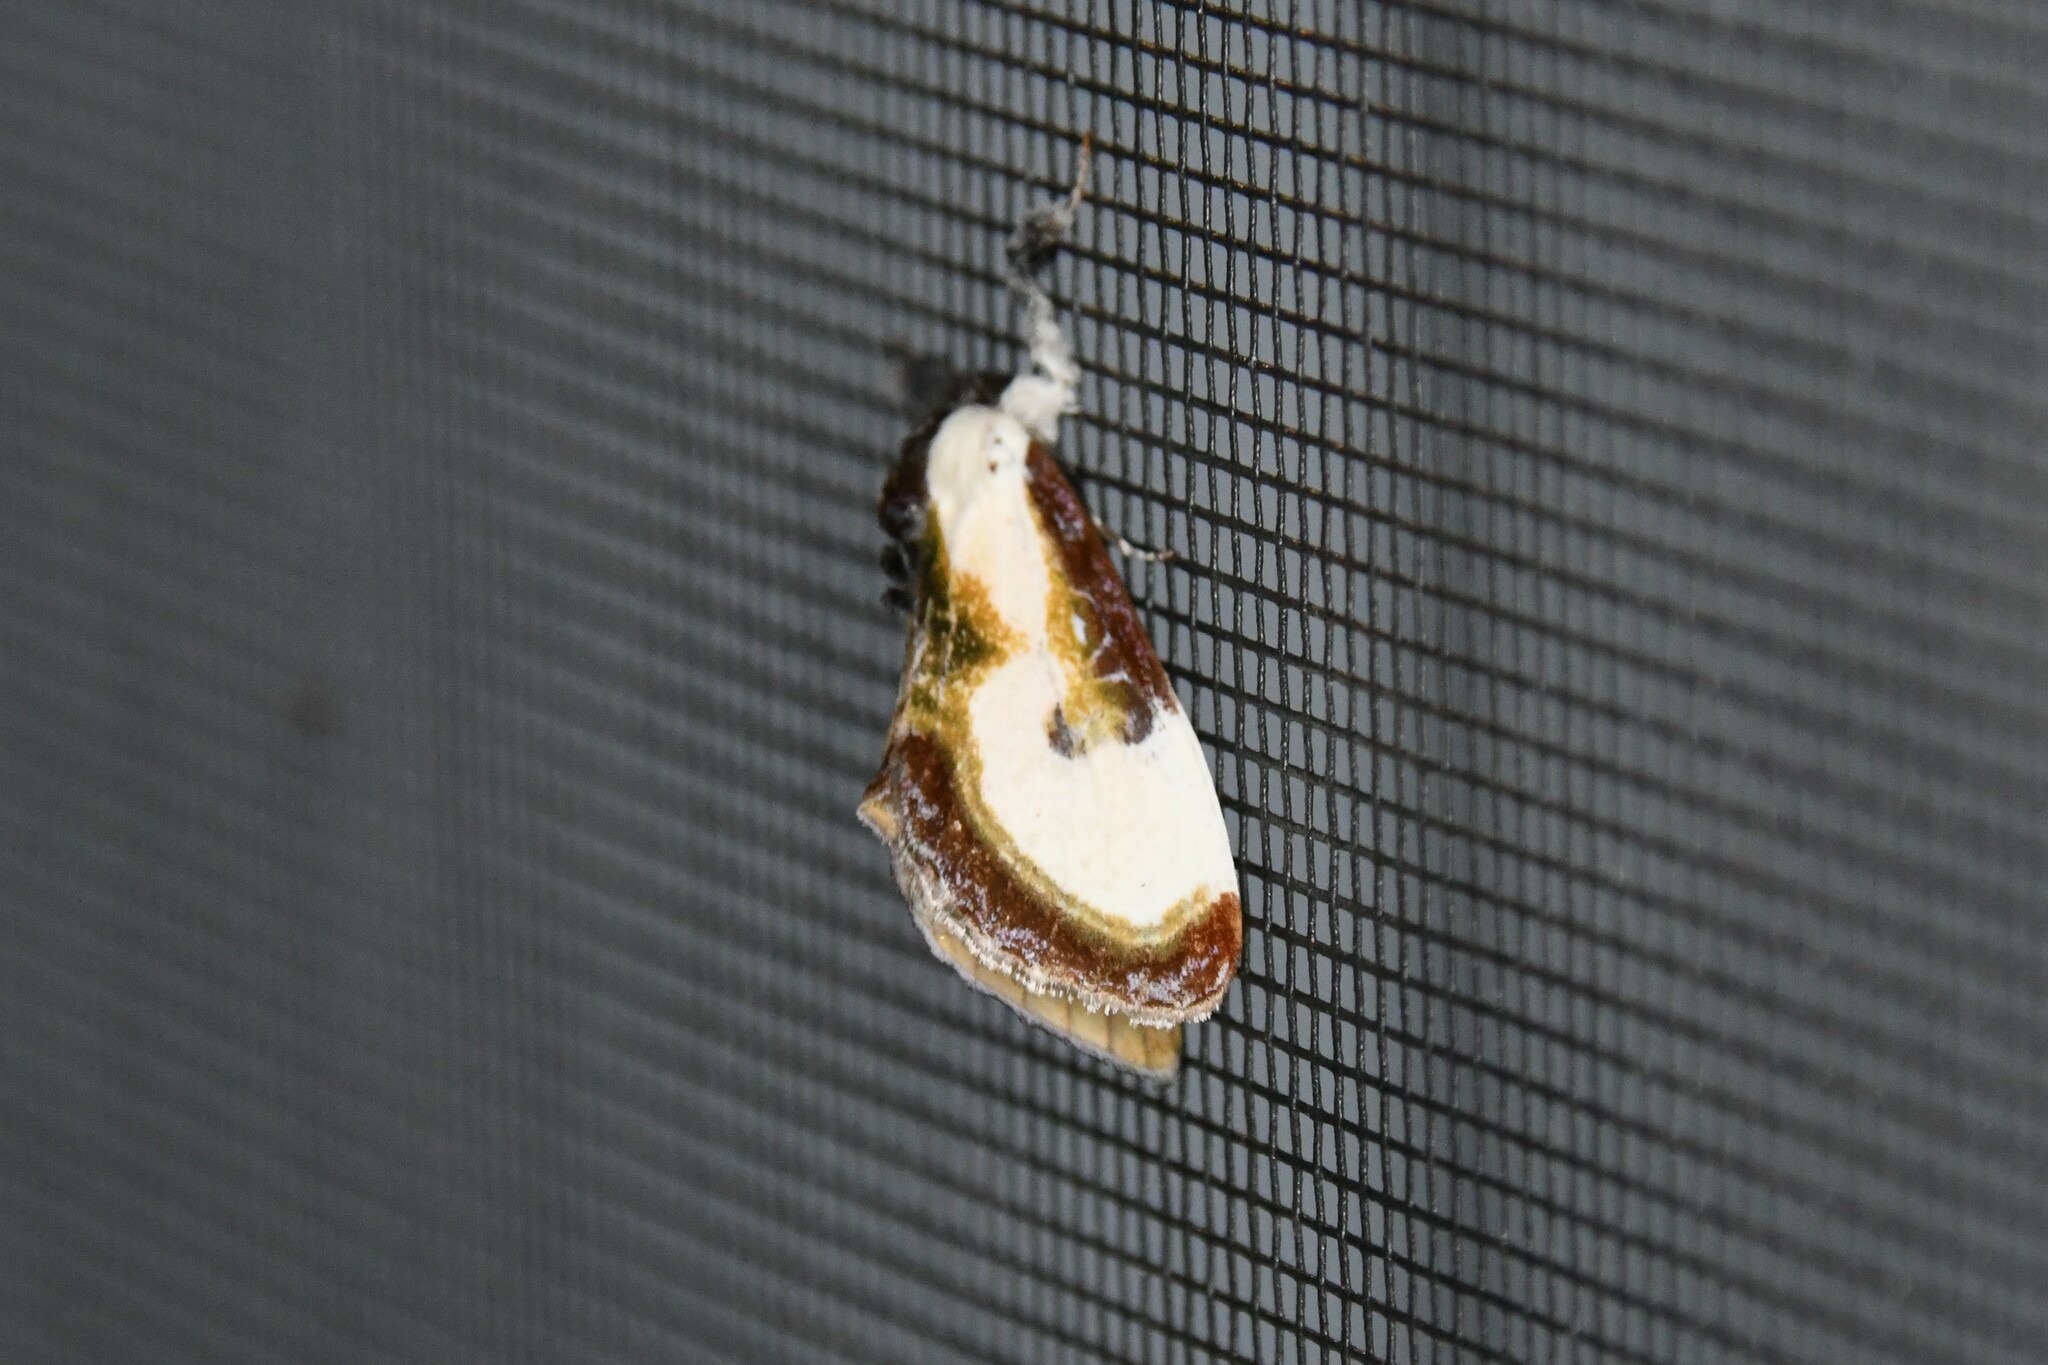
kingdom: Animalia
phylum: Arthropoda
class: Insecta
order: Lepidoptera
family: Noctuidae
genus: Eudryas
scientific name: Eudryas grata
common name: Beautiful wood-nymph
